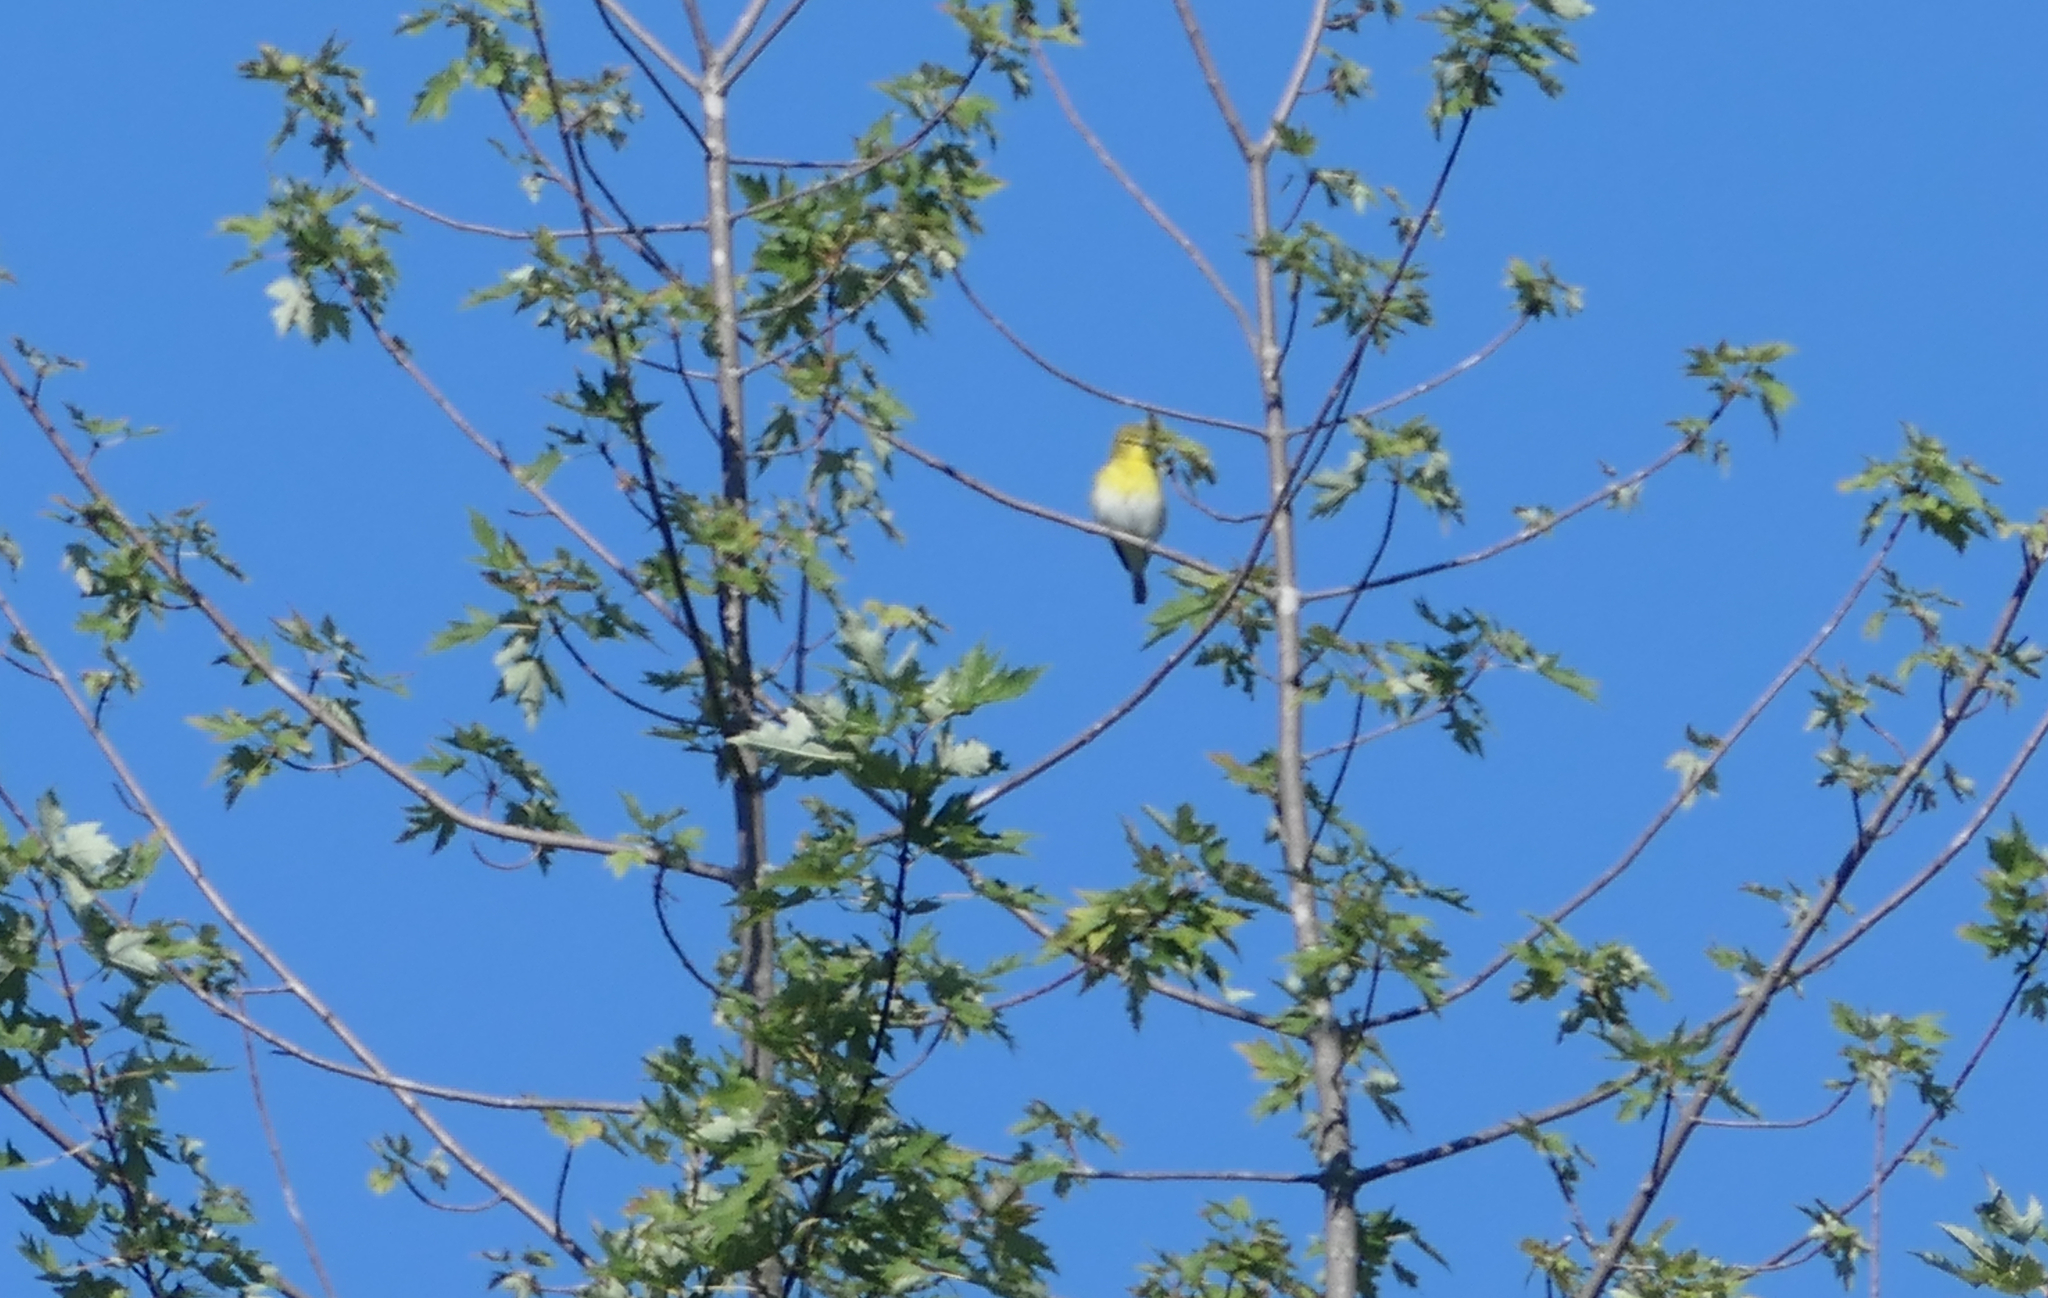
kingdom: Animalia
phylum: Chordata
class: Aves
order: Passeriformes
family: Vireonidae
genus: Vireo
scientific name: Vireo flavifrons
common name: Yellow-throated vireo
